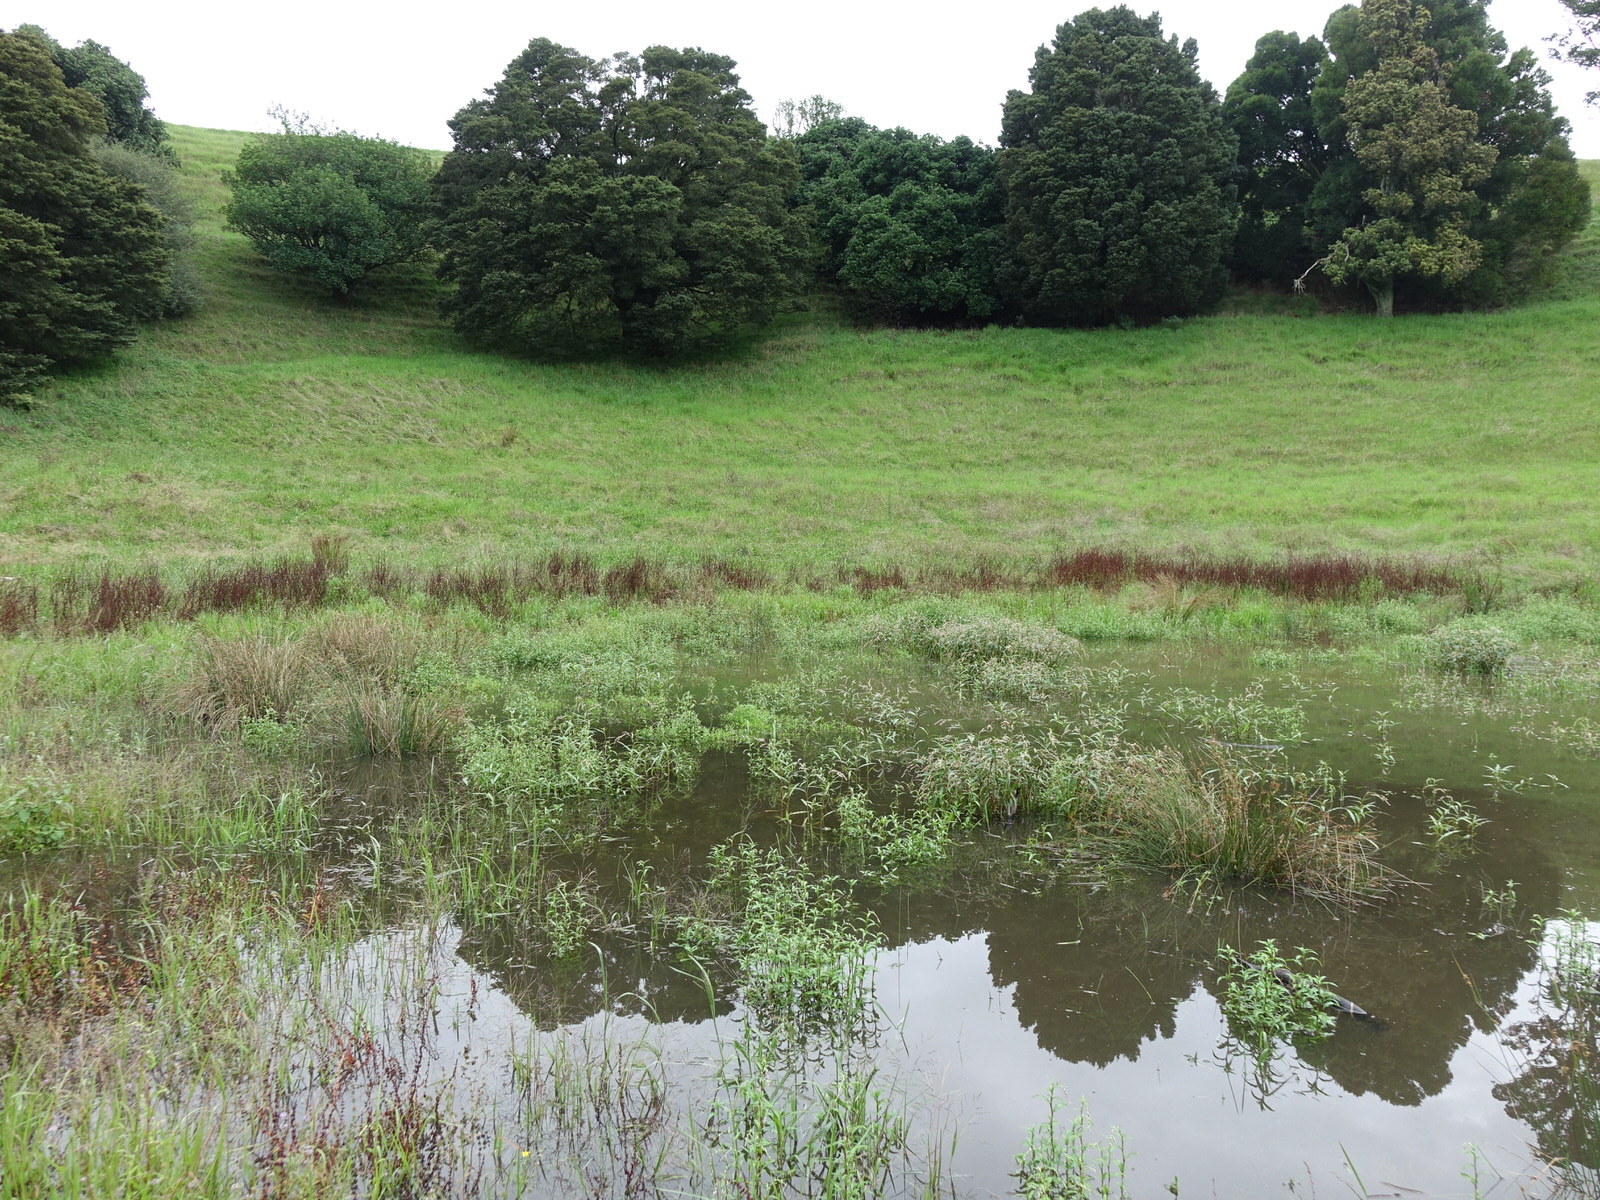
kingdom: Animalia
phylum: Arthropoda
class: Insecta
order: Lepidoptera
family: Lycaenidae
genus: Lampides
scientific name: Lampides boeticus
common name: Long-tailed blue
